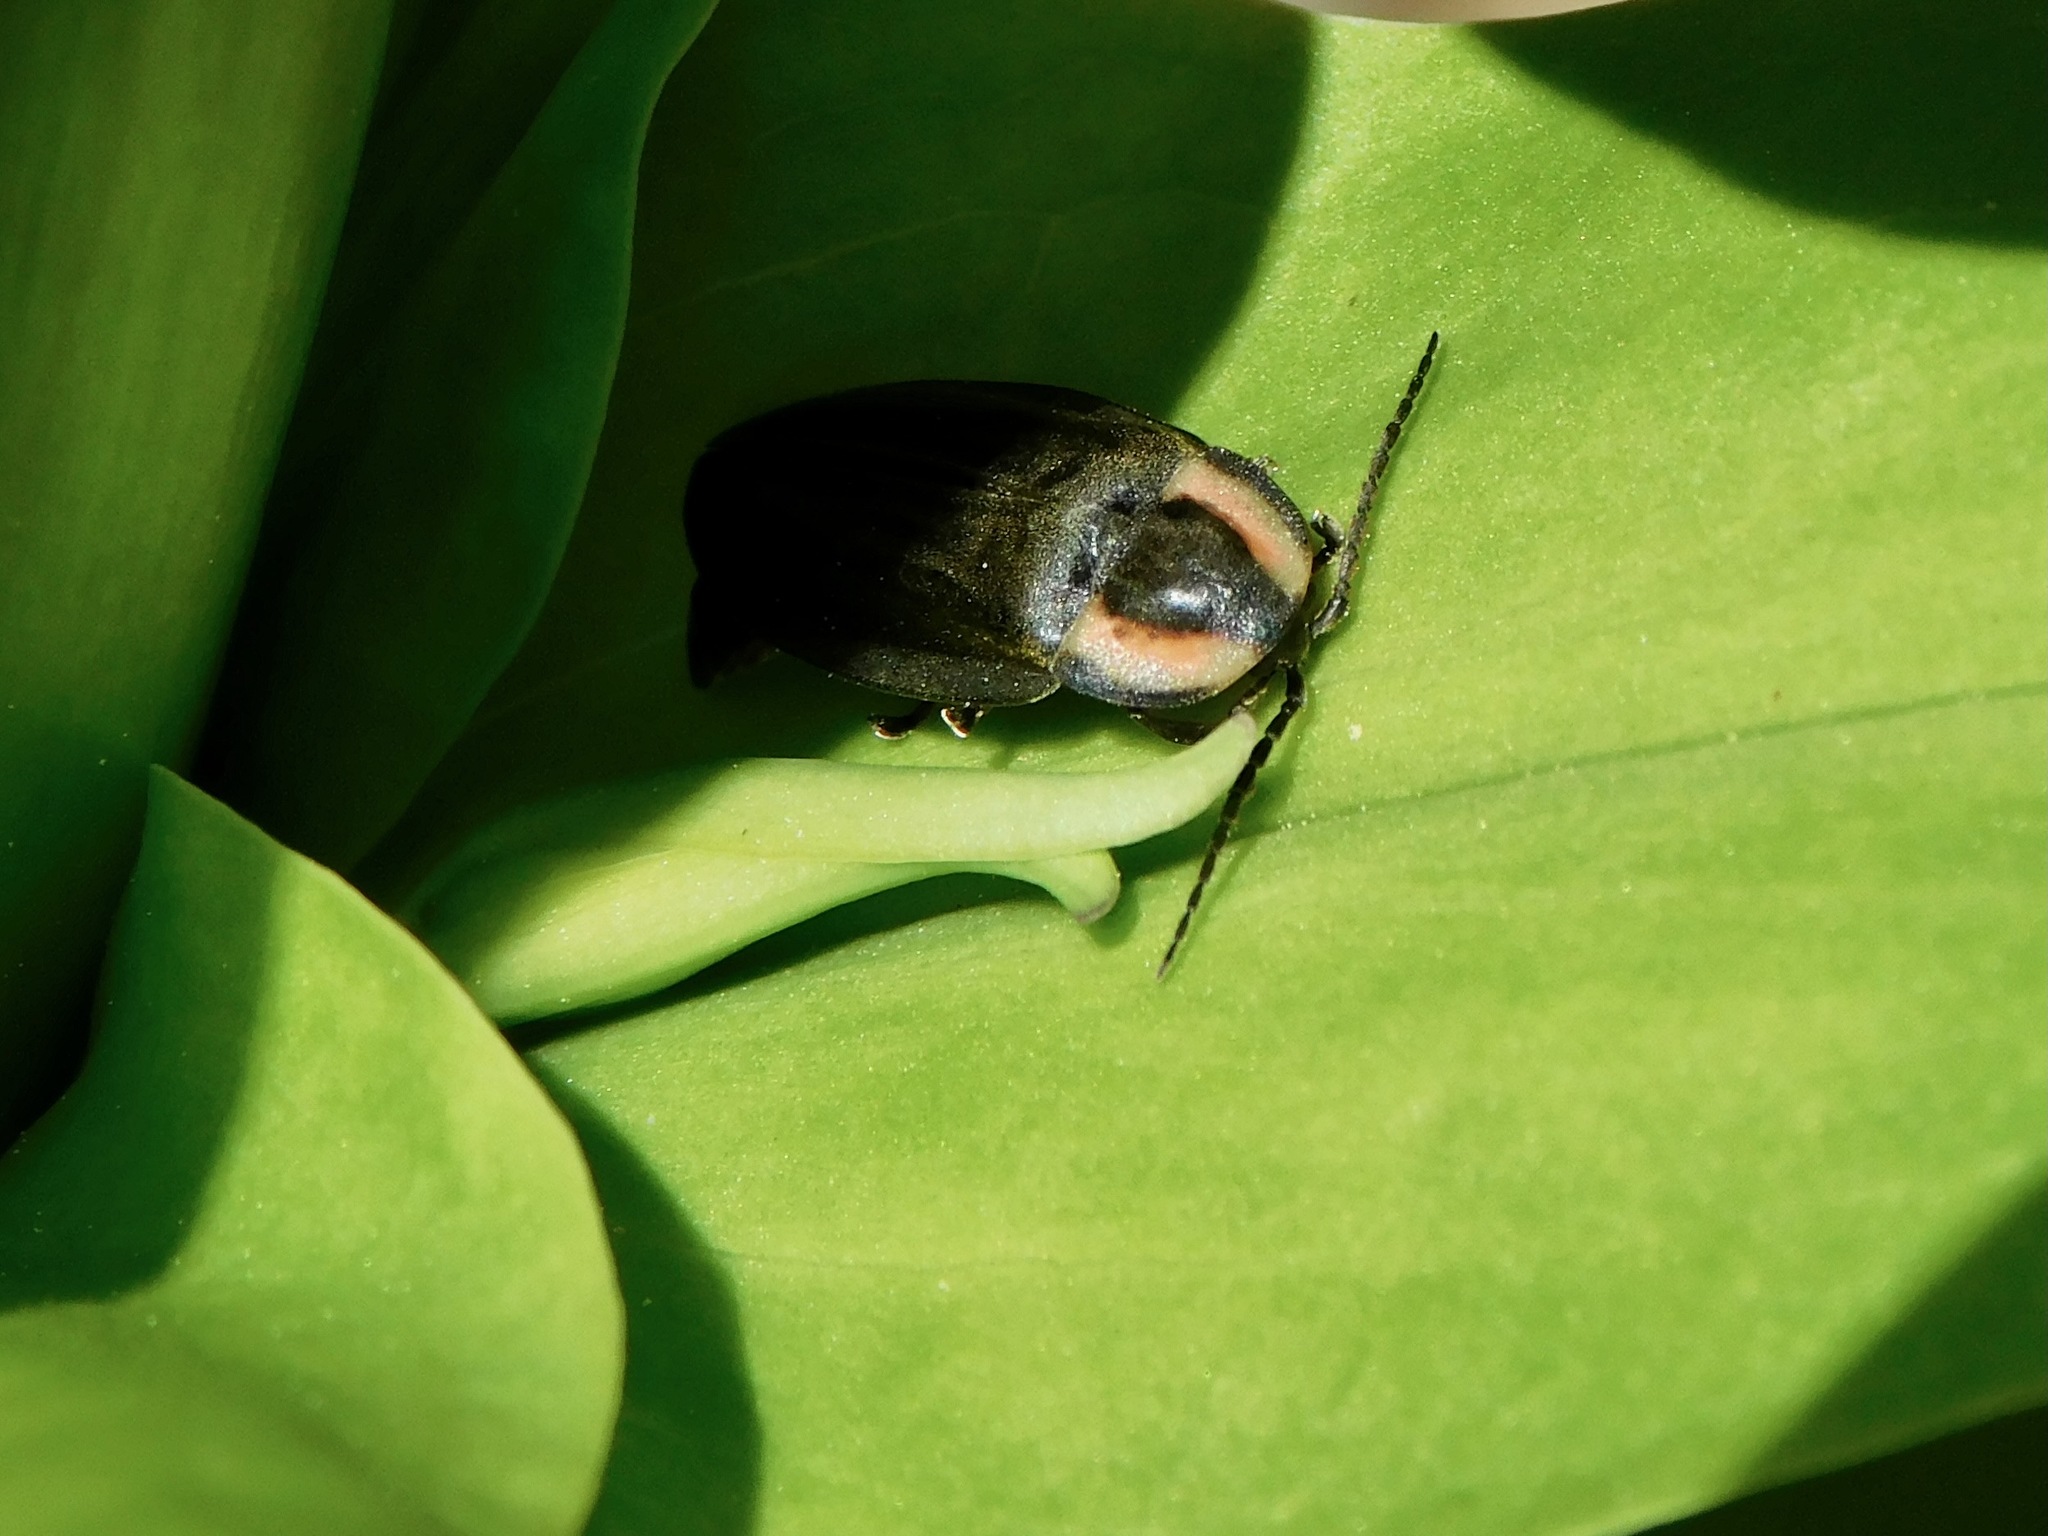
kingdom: Animalia
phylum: Arthropoda
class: Insecta
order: Coleoptera
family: Lampyridae
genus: Photinus
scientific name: Photinus corrusca
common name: Winter firefly
